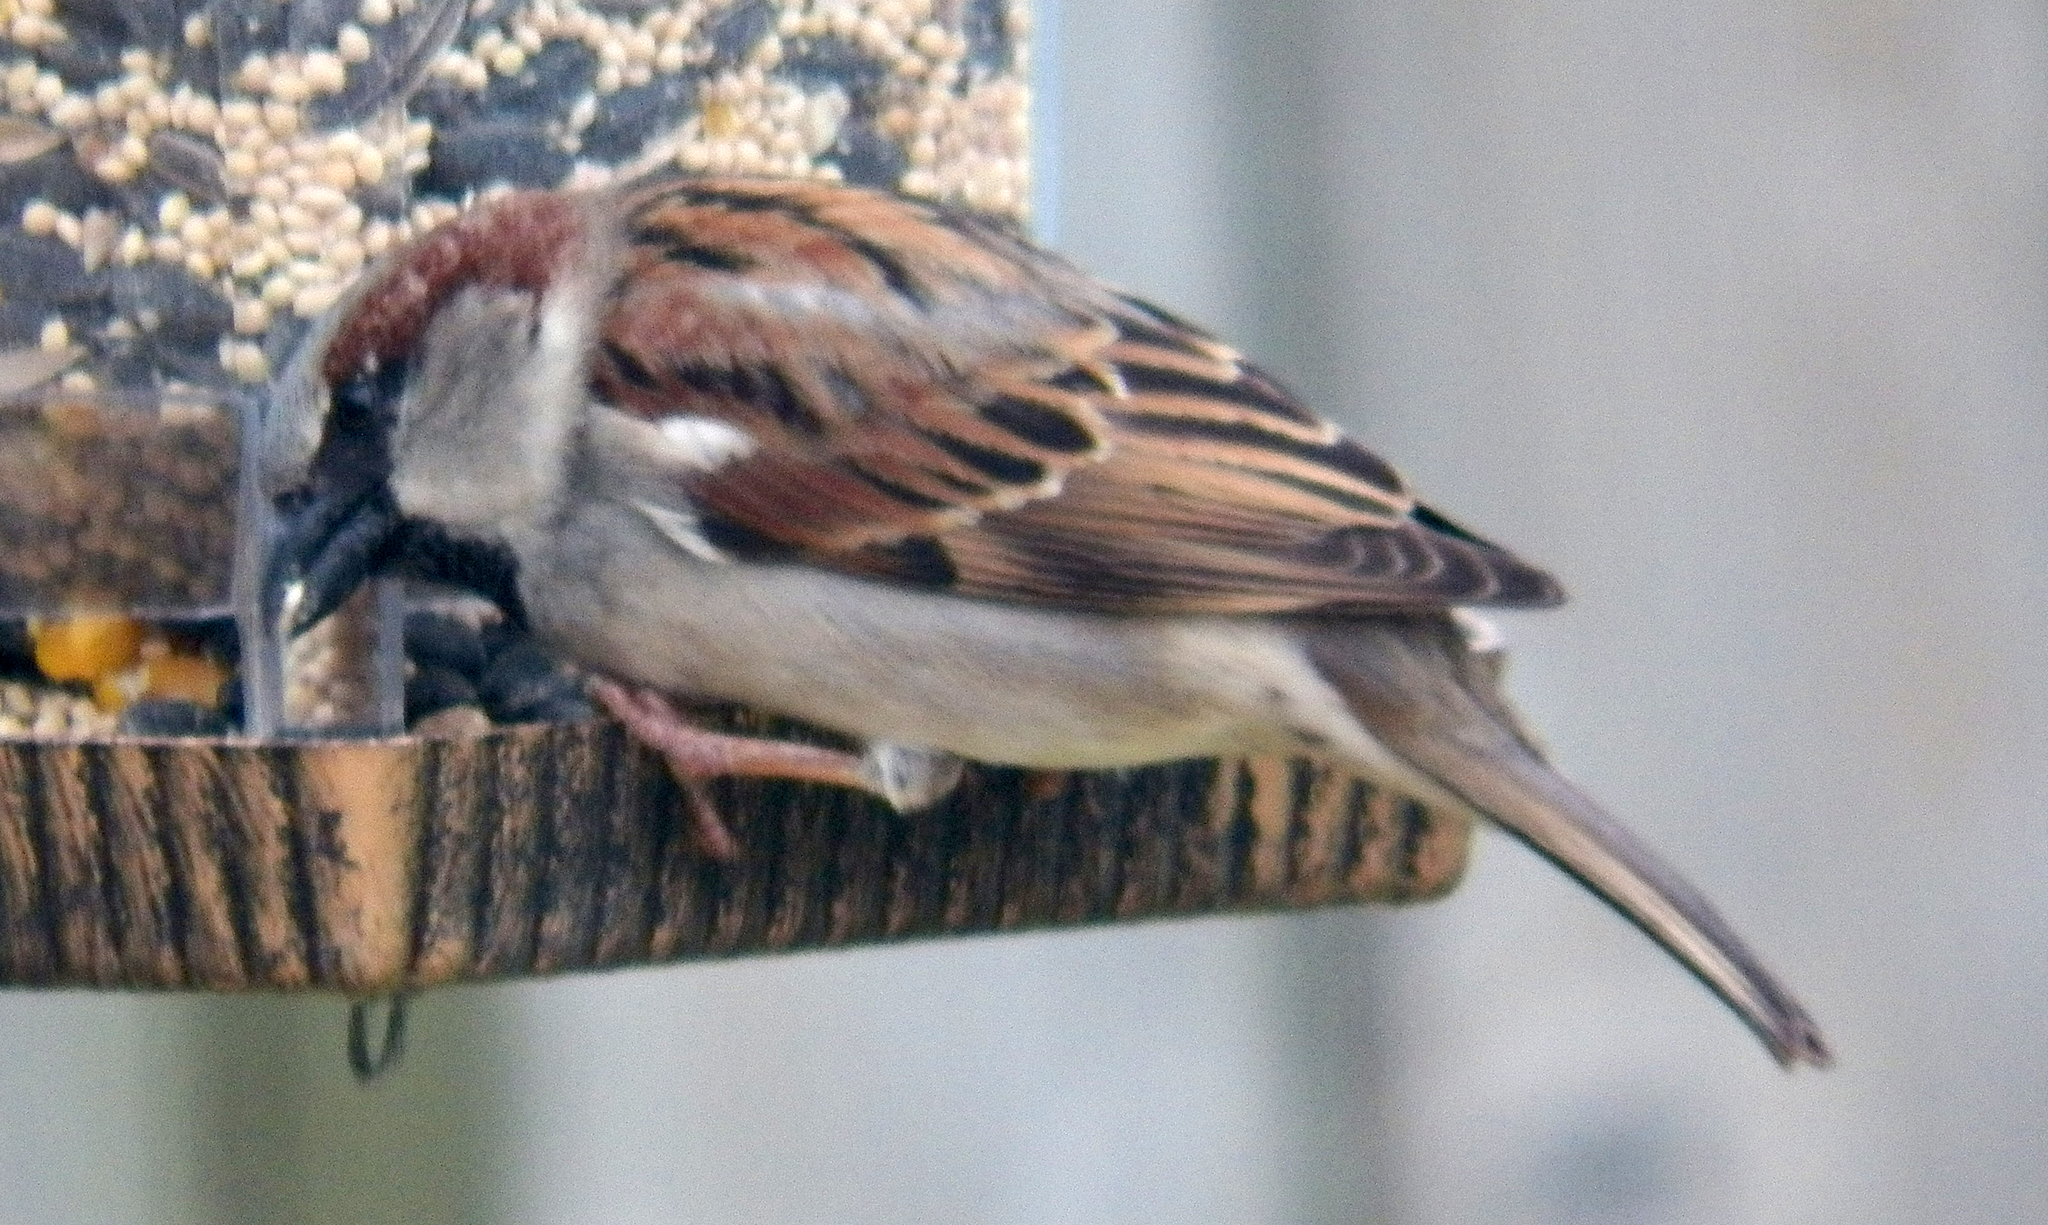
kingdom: Animalia
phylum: Chordata
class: Aves
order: Passeriformes
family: Passeridae
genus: Passer
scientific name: Passer domesticus
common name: House sparrow
